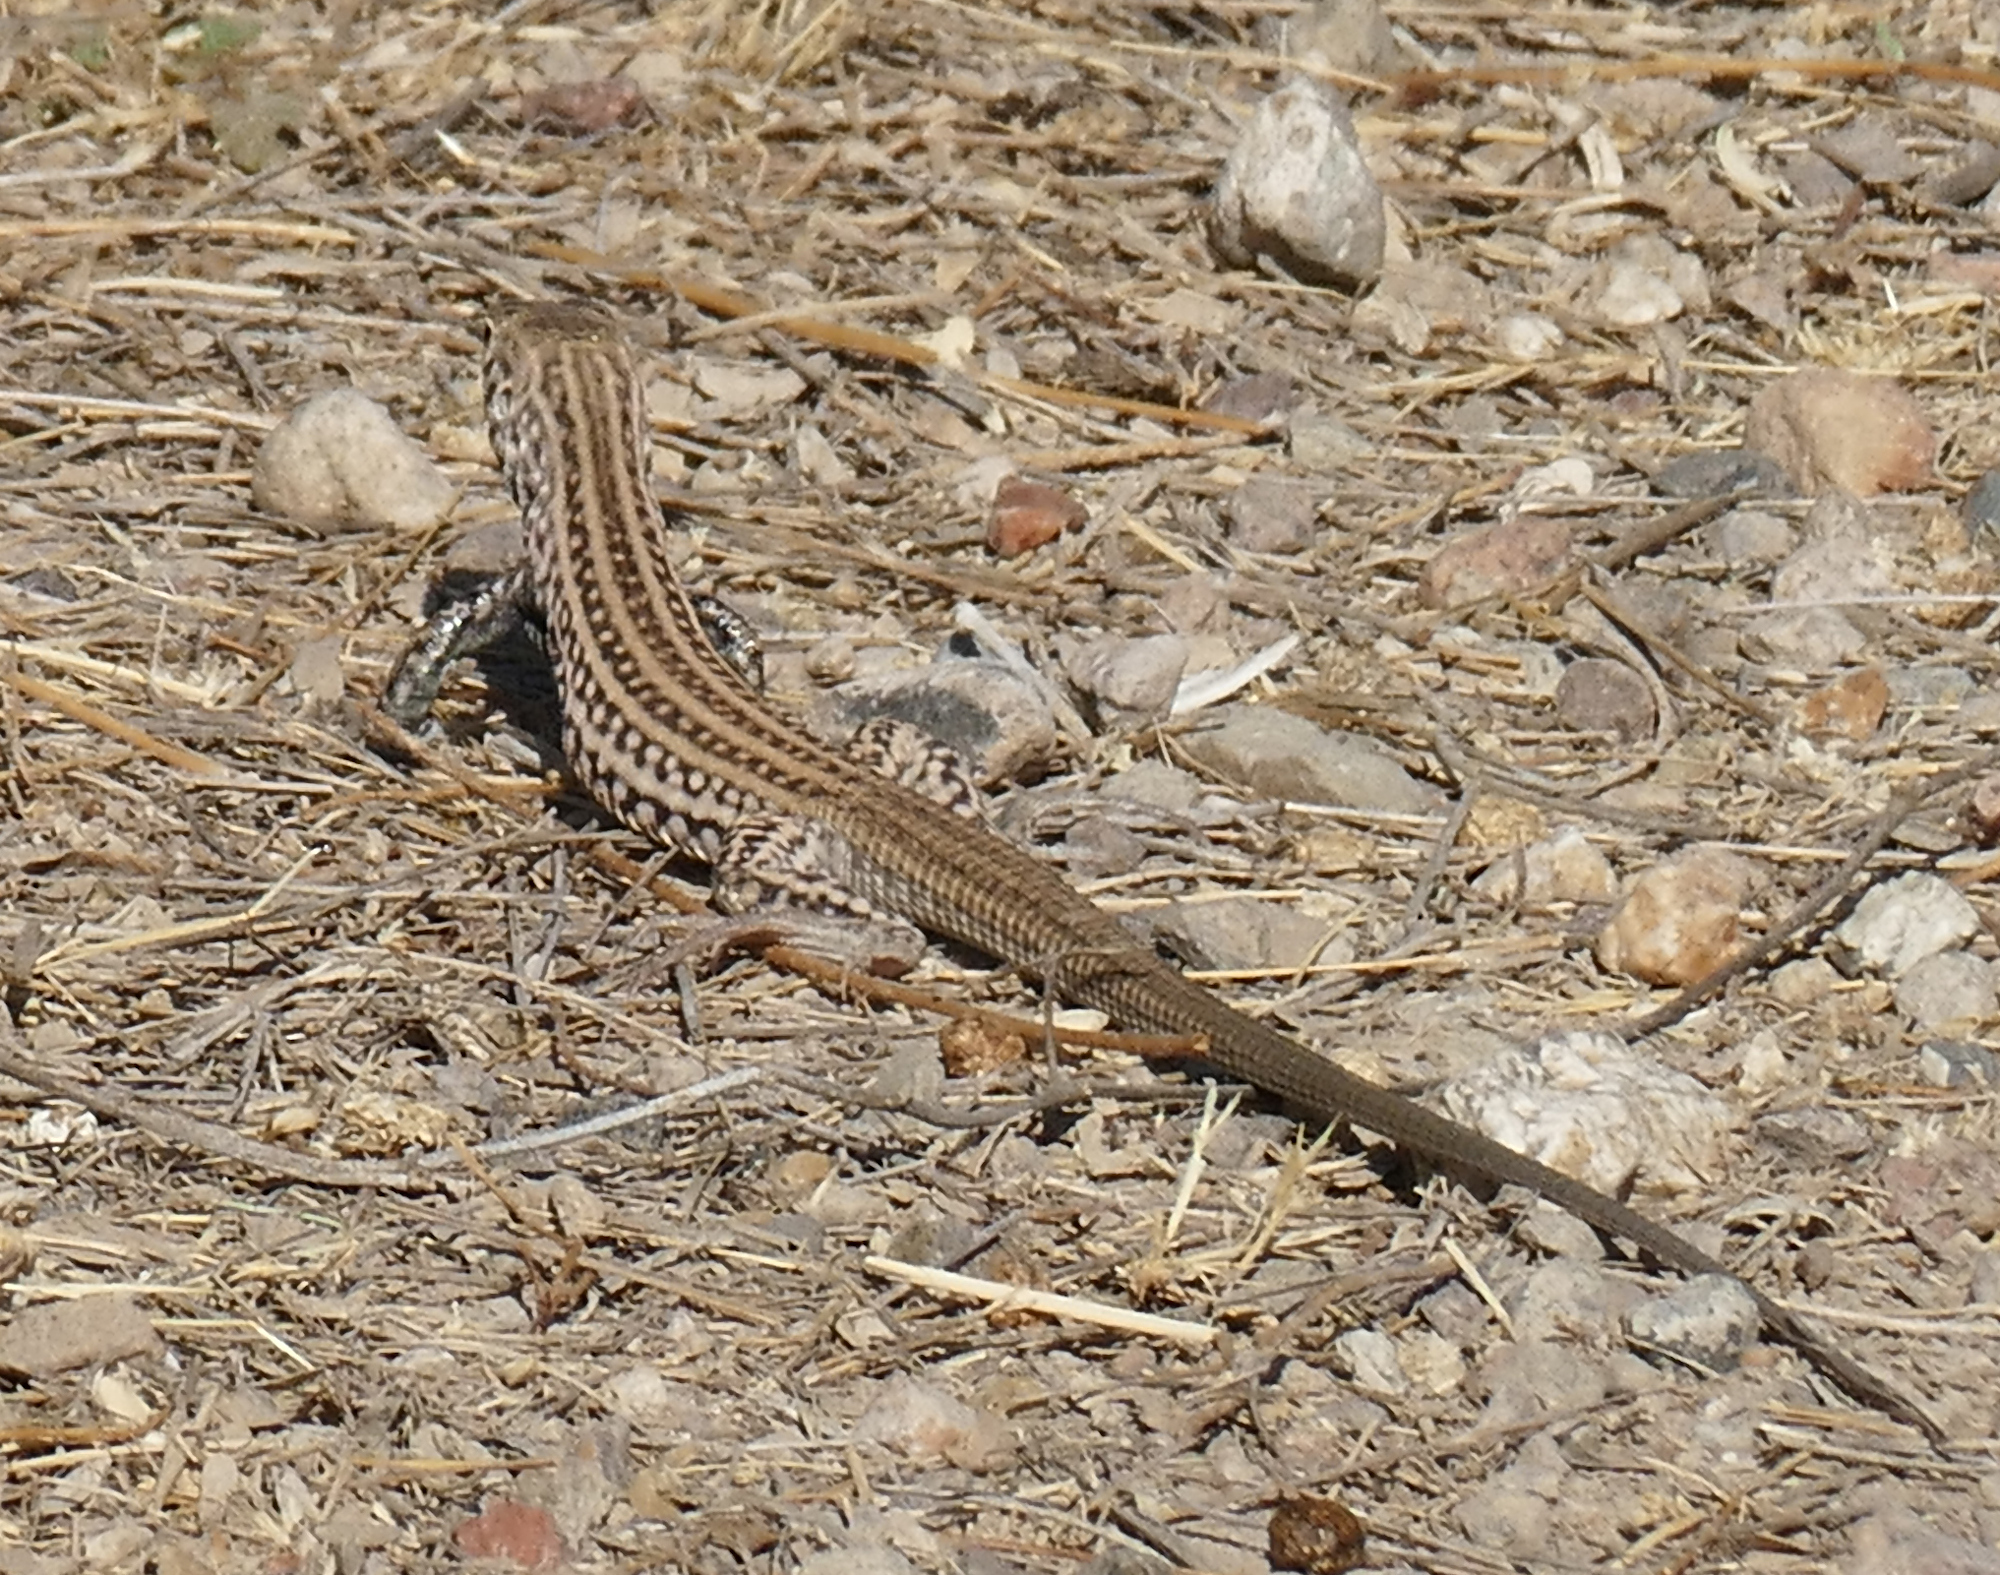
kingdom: Animalia
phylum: Chordata
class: Squamata
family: Teiidae
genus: Aspidoscelis
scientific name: Aspidoscelis tigris
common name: Tiger whiptail
